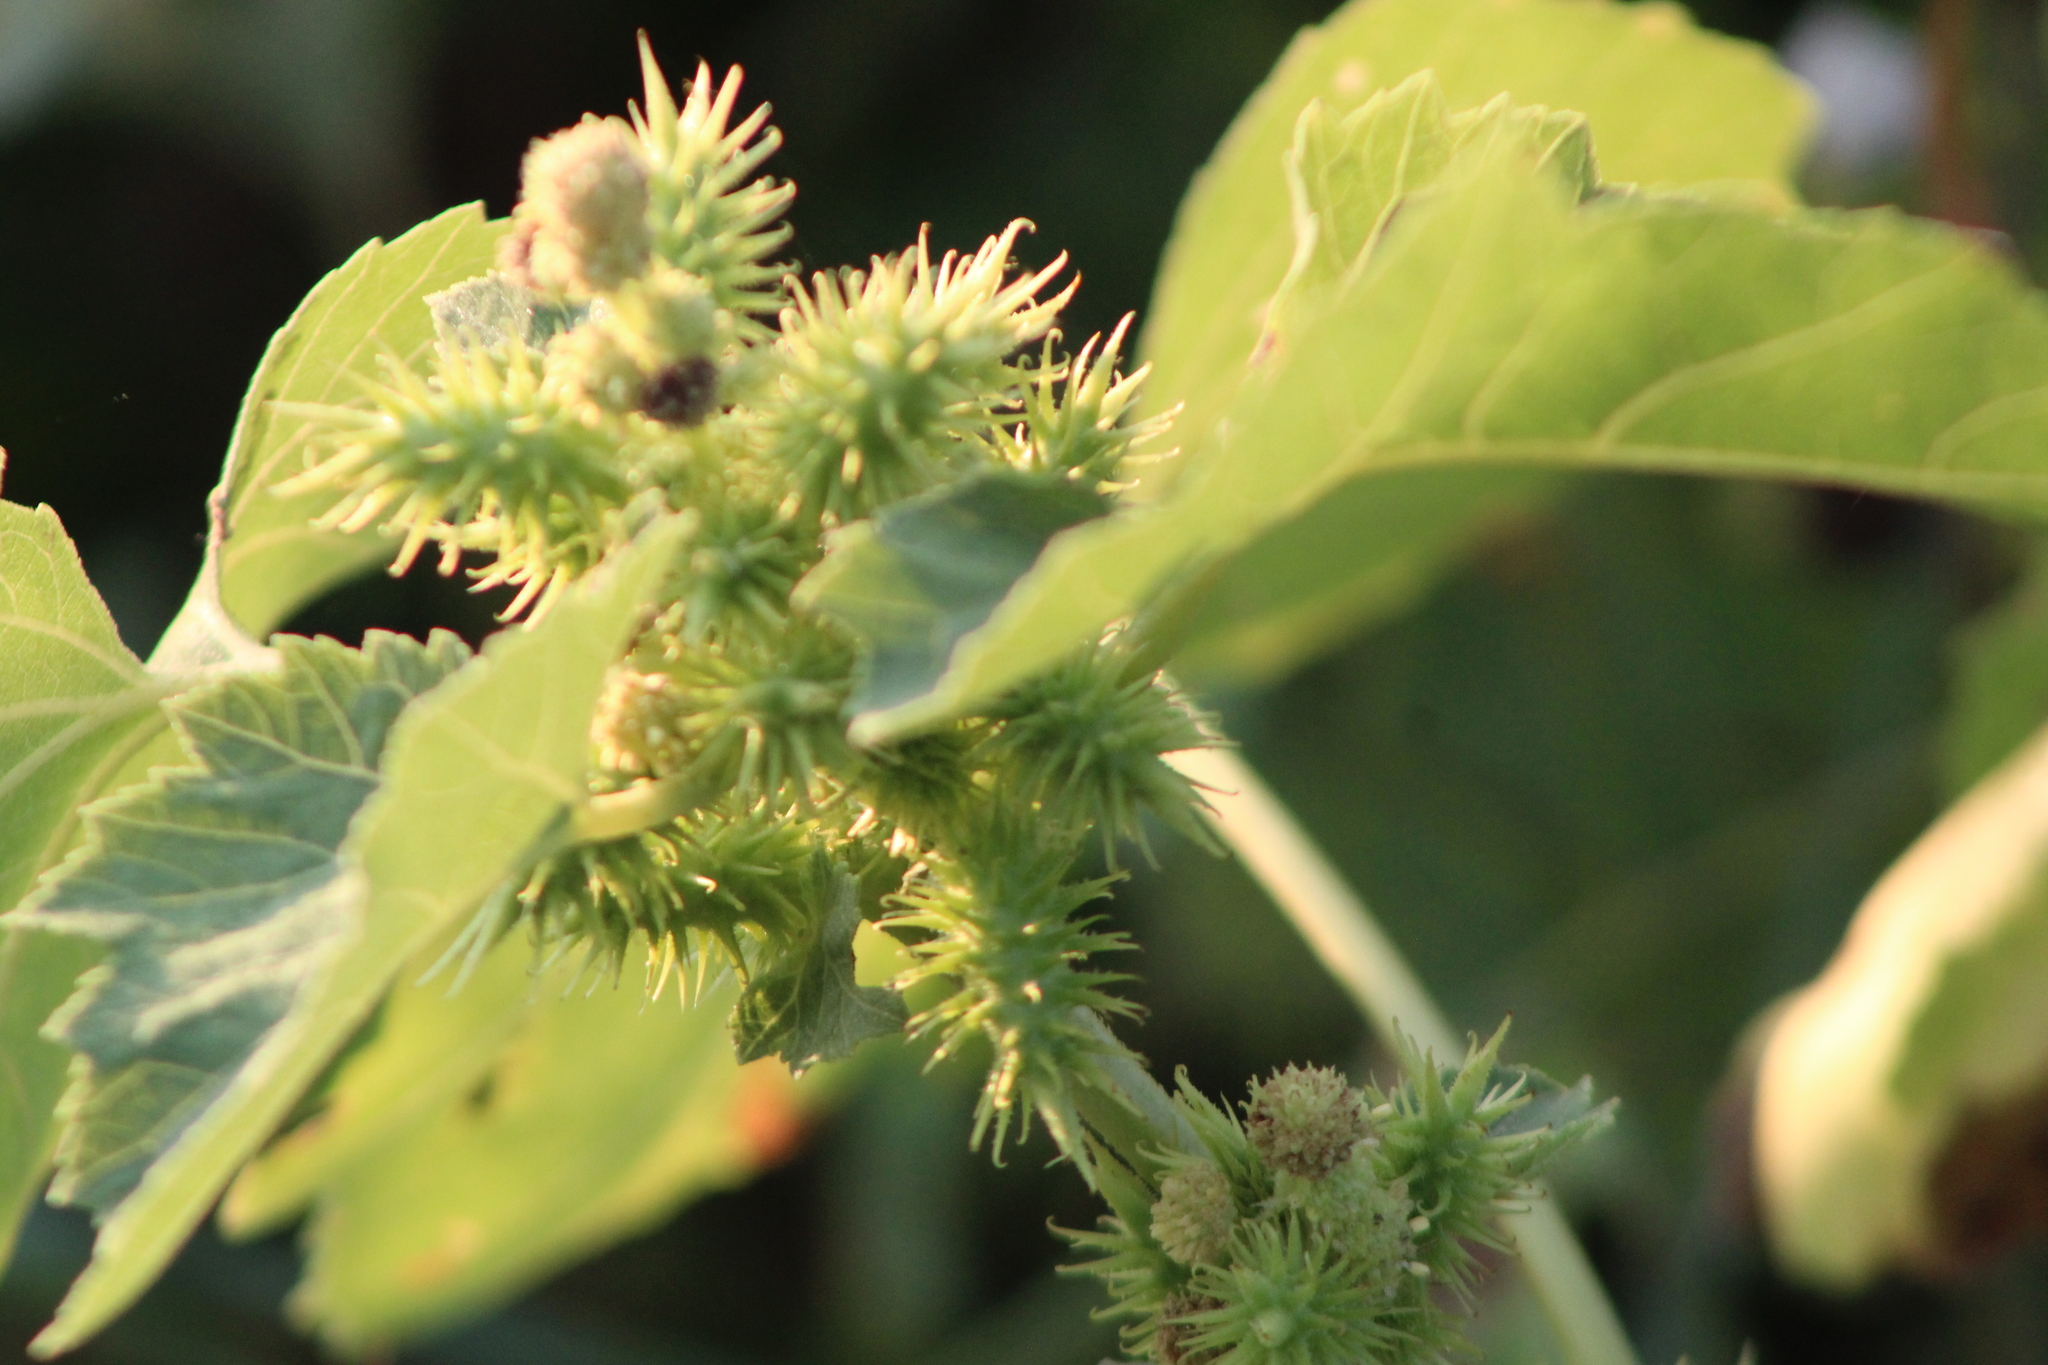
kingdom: Plantae
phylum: Tracheophyta
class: Magnoliopsida
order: Asterales
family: Asteraceae
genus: Xanthium
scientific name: Xanthium strumarium
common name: Rough cocklebur
